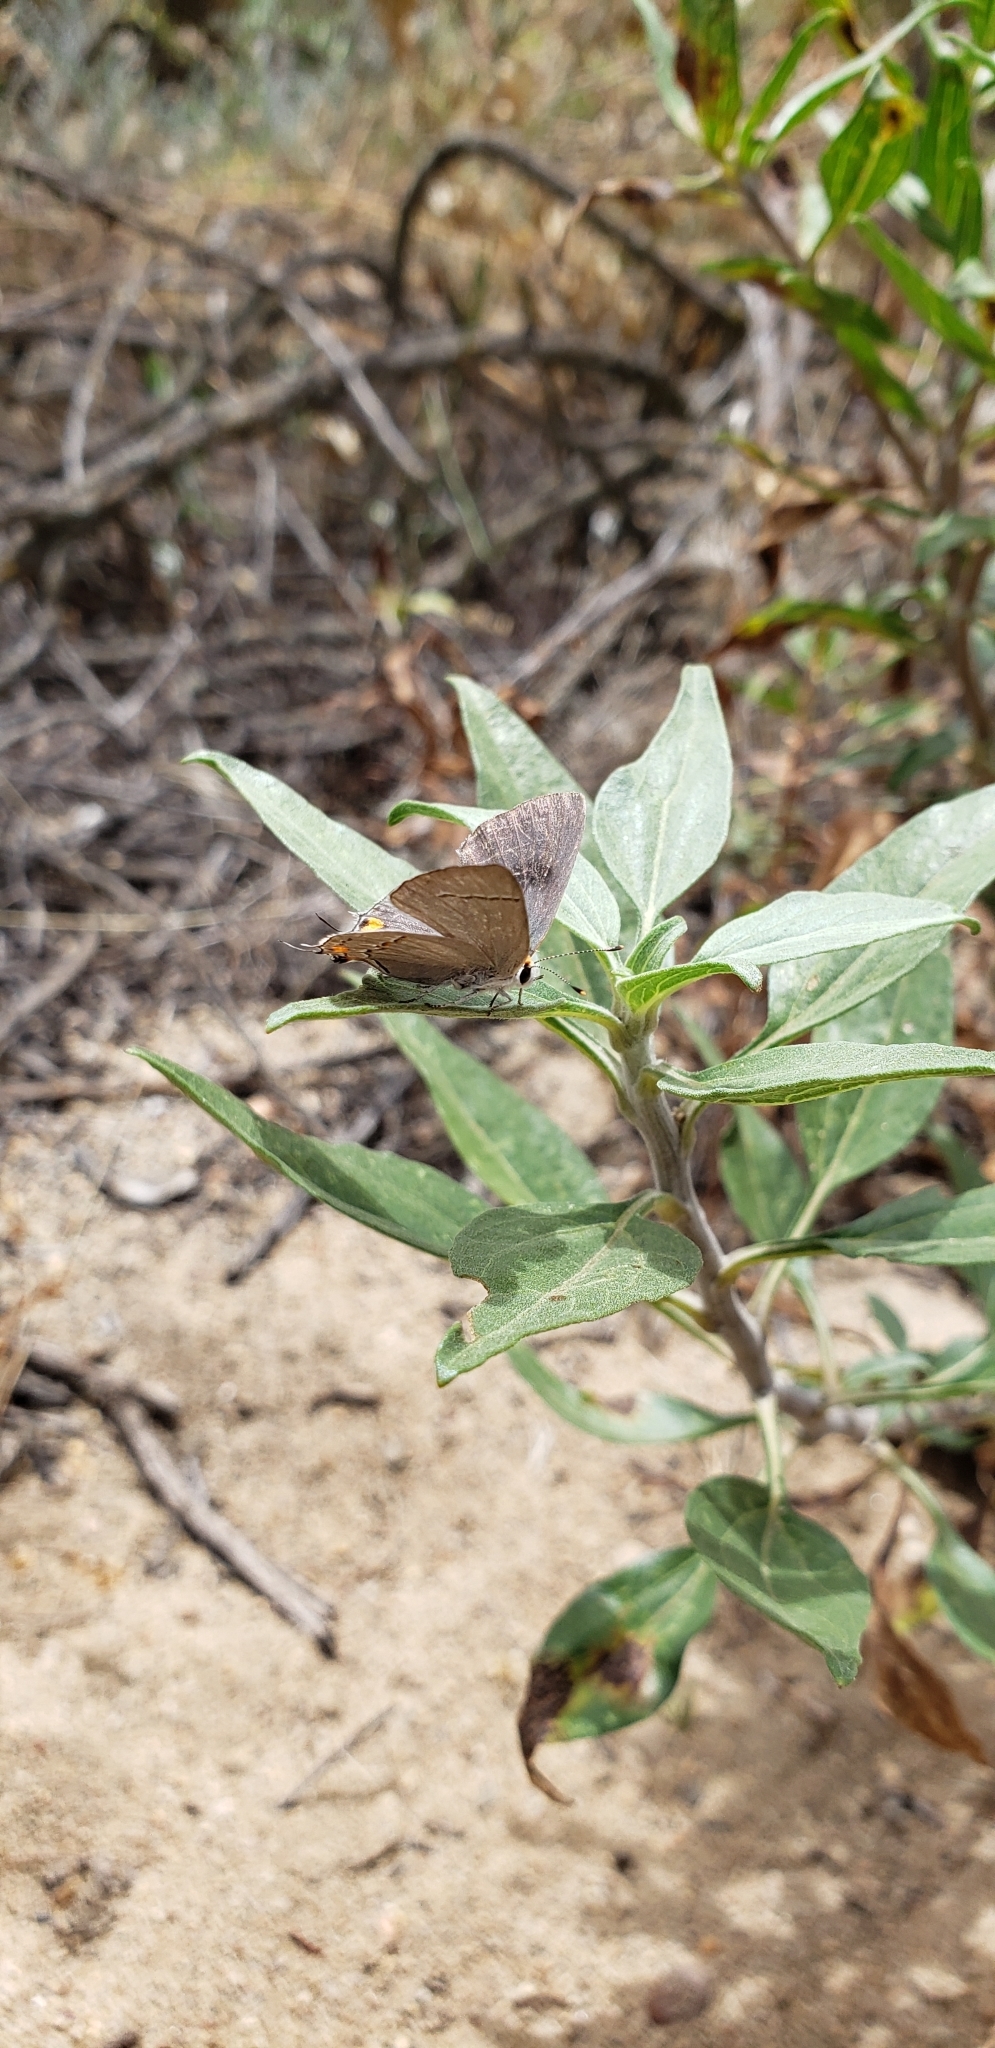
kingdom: Animalia
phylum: Arthropoda
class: Insecta
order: Lepidoptera
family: Lycaenidae
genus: Strymon
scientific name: Strymon melinus
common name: Gray hairstreak
